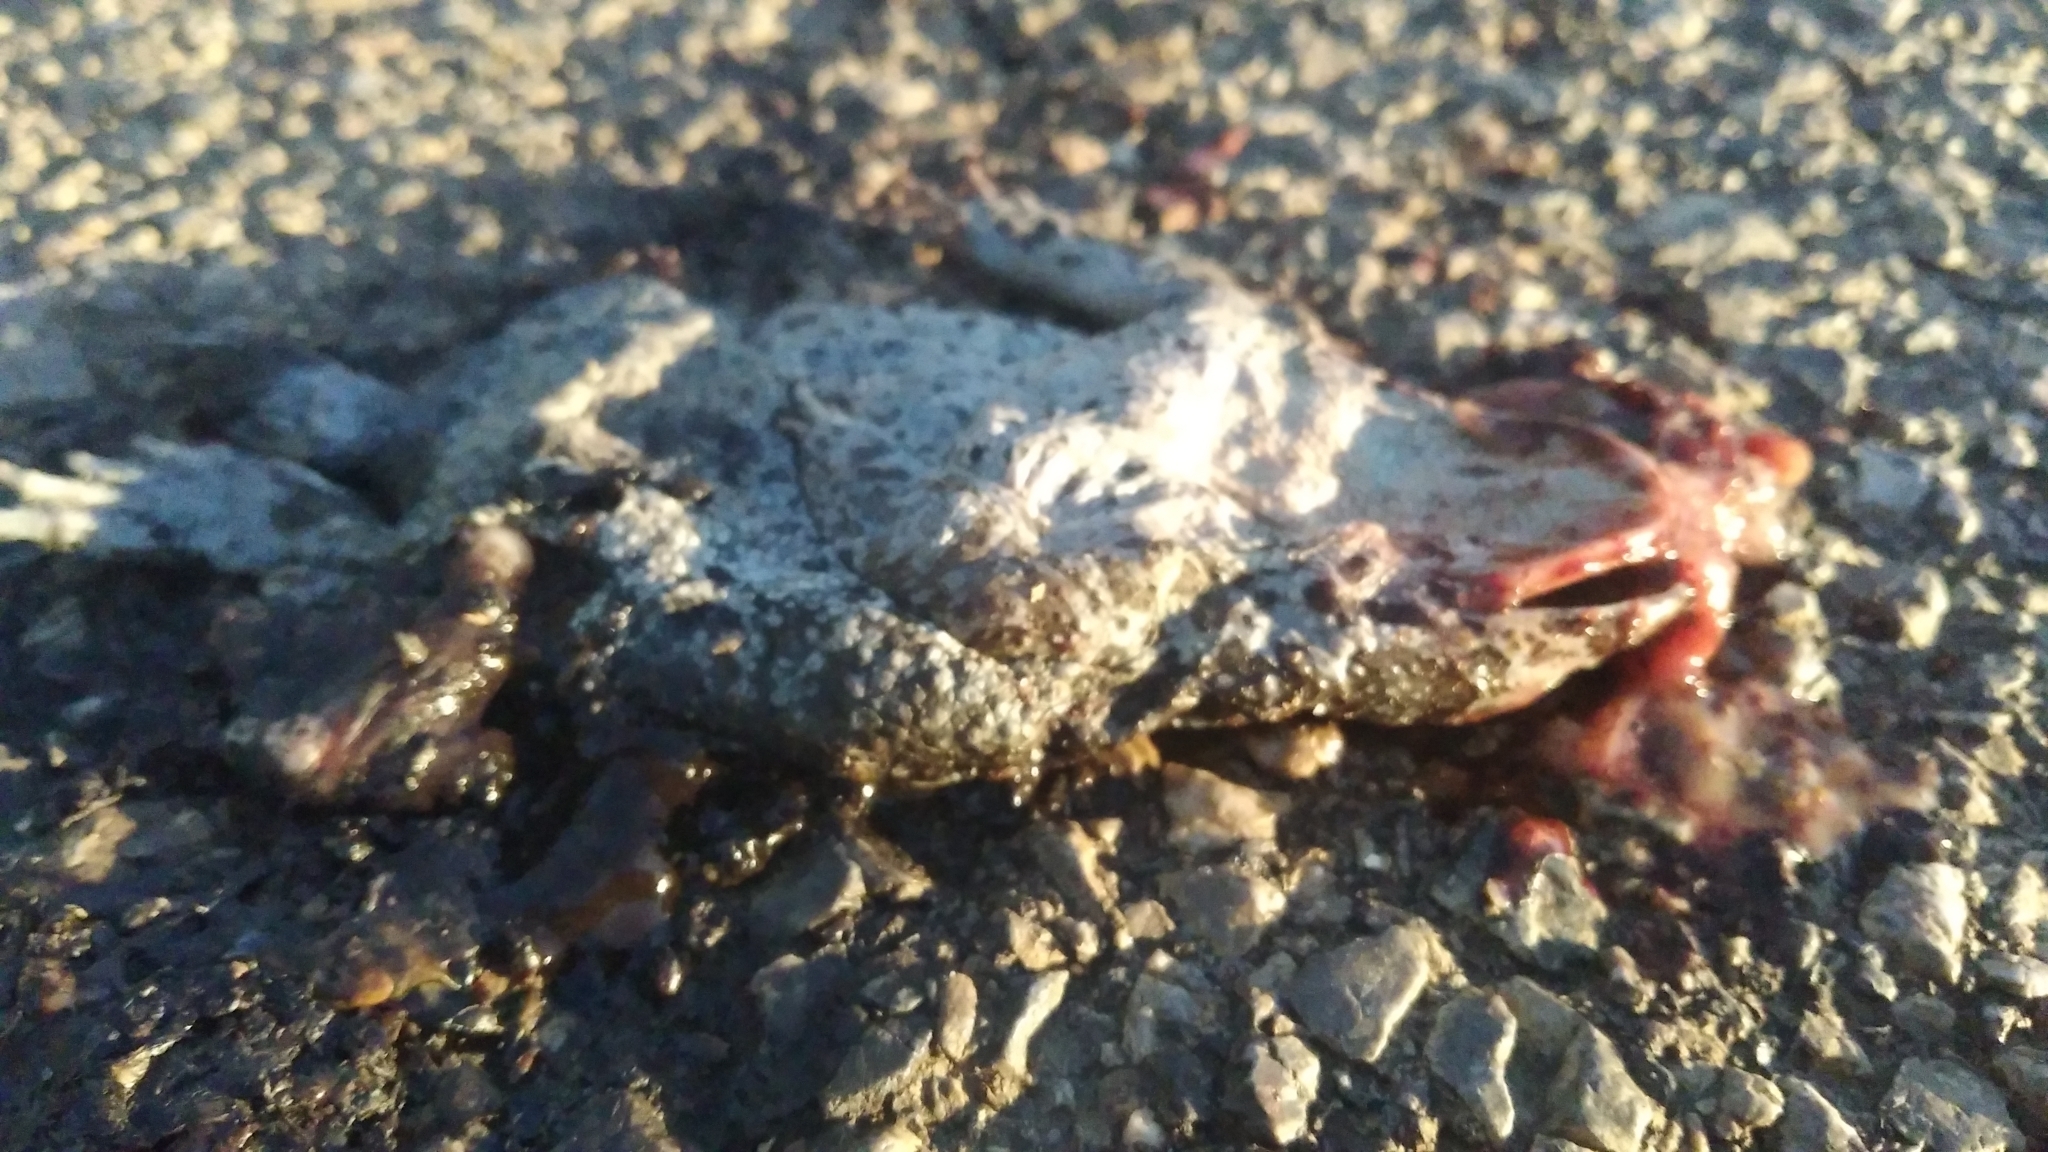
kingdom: Animalia
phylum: Chordata
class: Amphibia
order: Anura
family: Bufonidae
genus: Epidalea
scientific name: Epidalea calamita
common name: Natterjack toad
